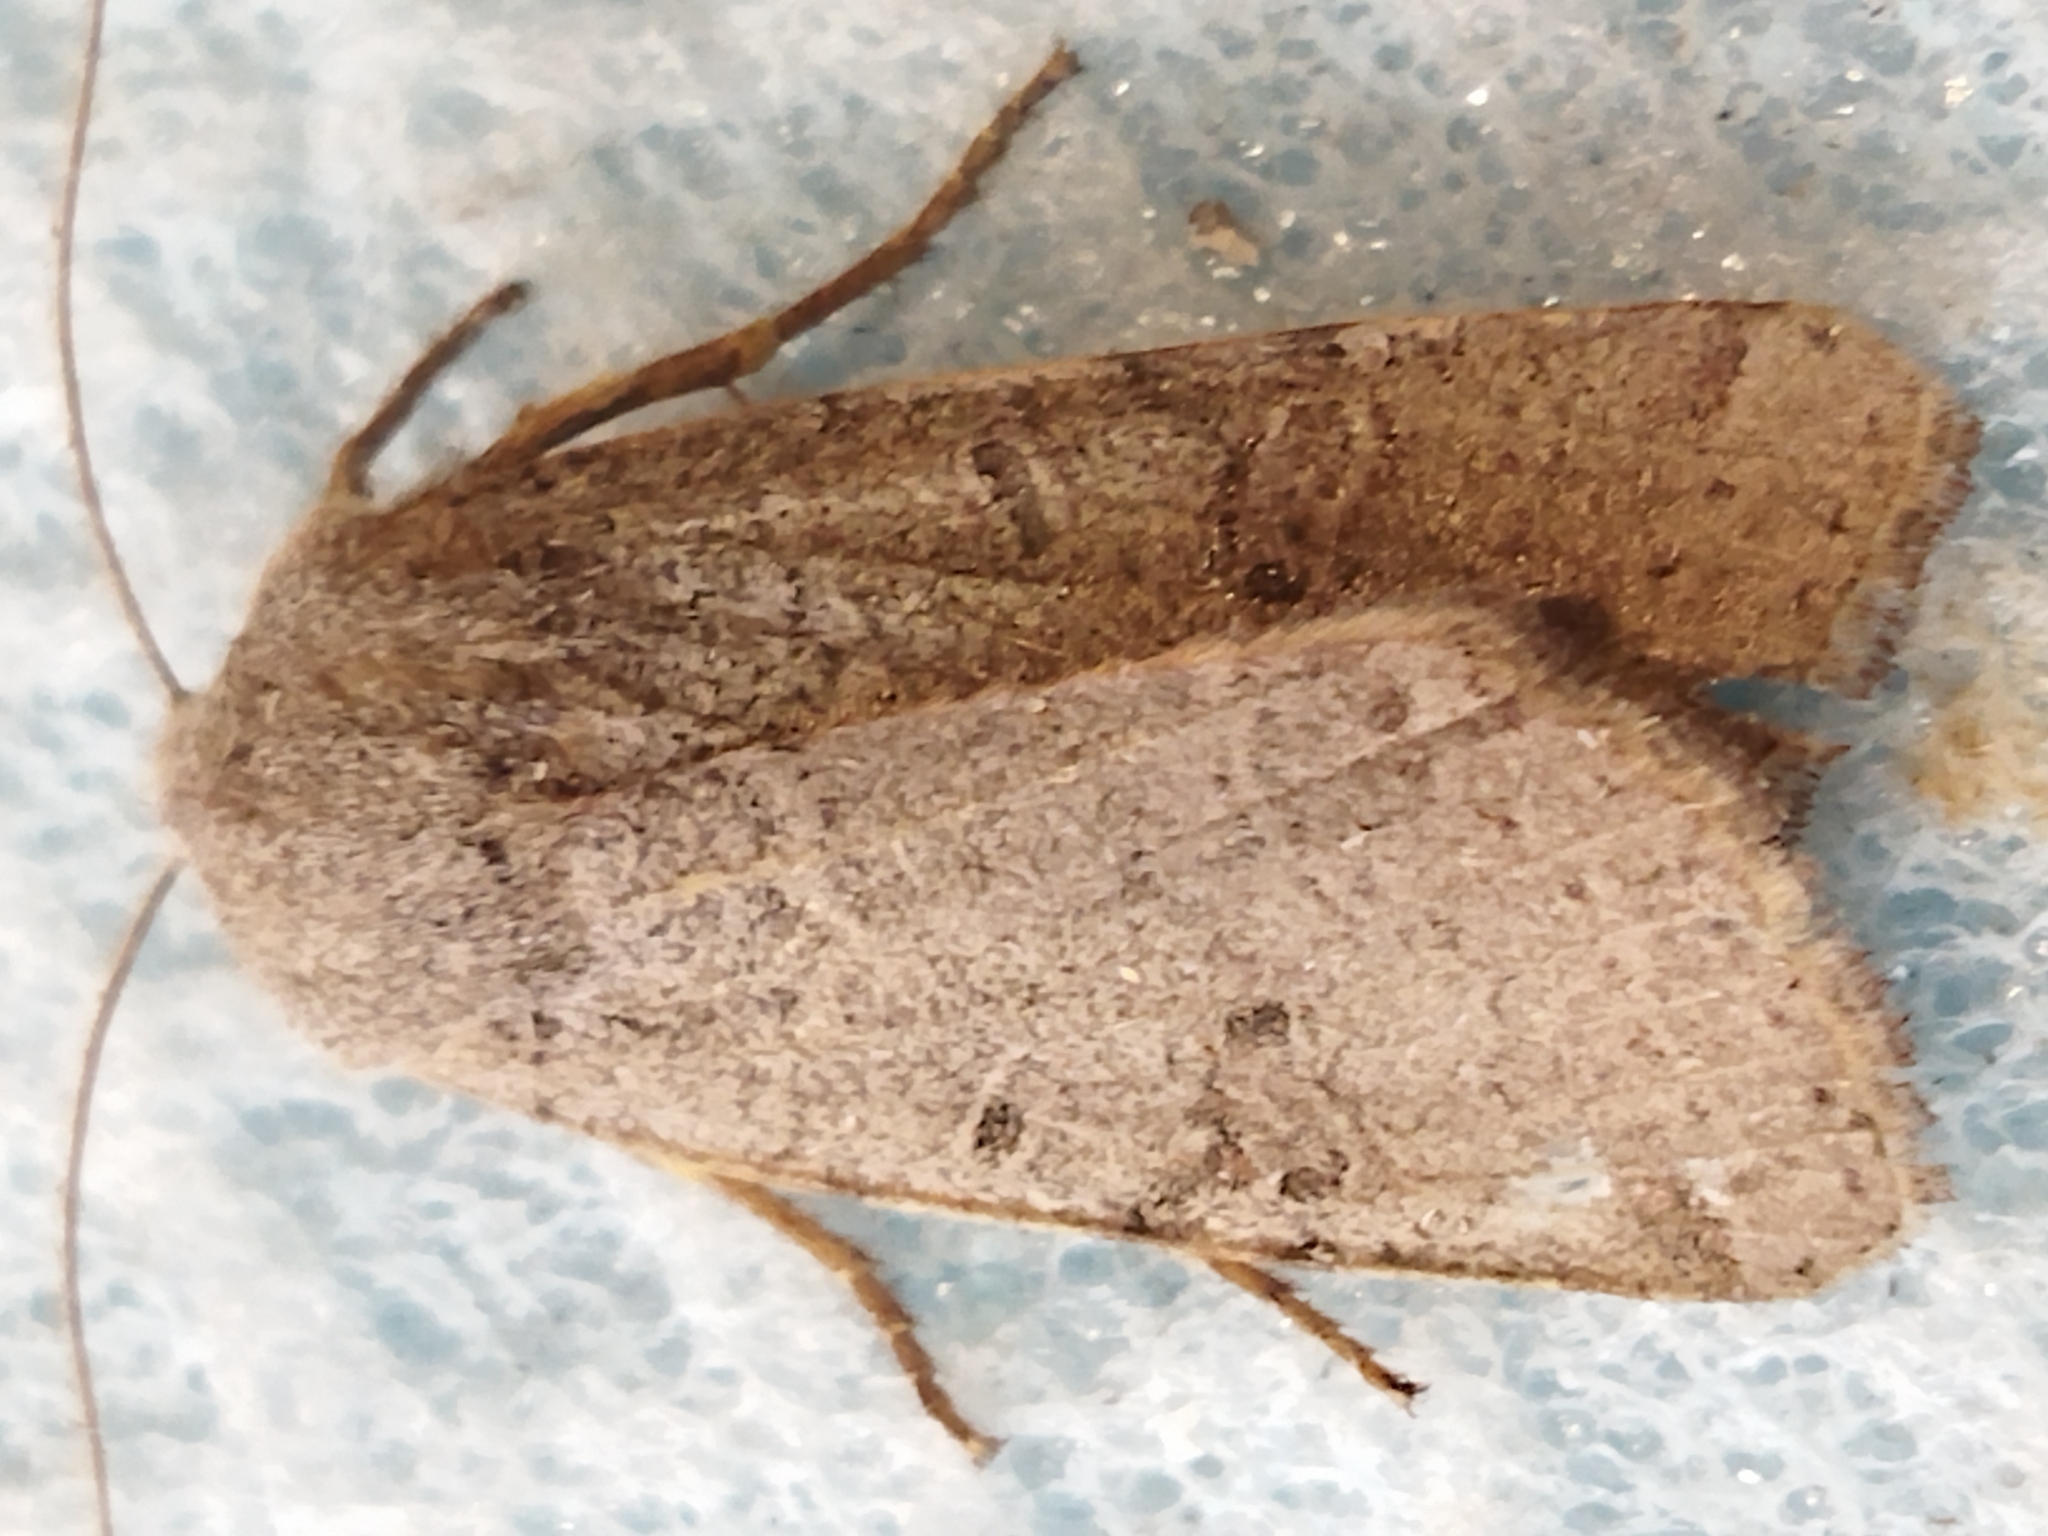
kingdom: Animalia
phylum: Arthropoda
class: Insecta
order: Lepidoptera
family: Noctuidae
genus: Agrochola
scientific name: Agrochola lychnidis
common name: Beaded chestnut
